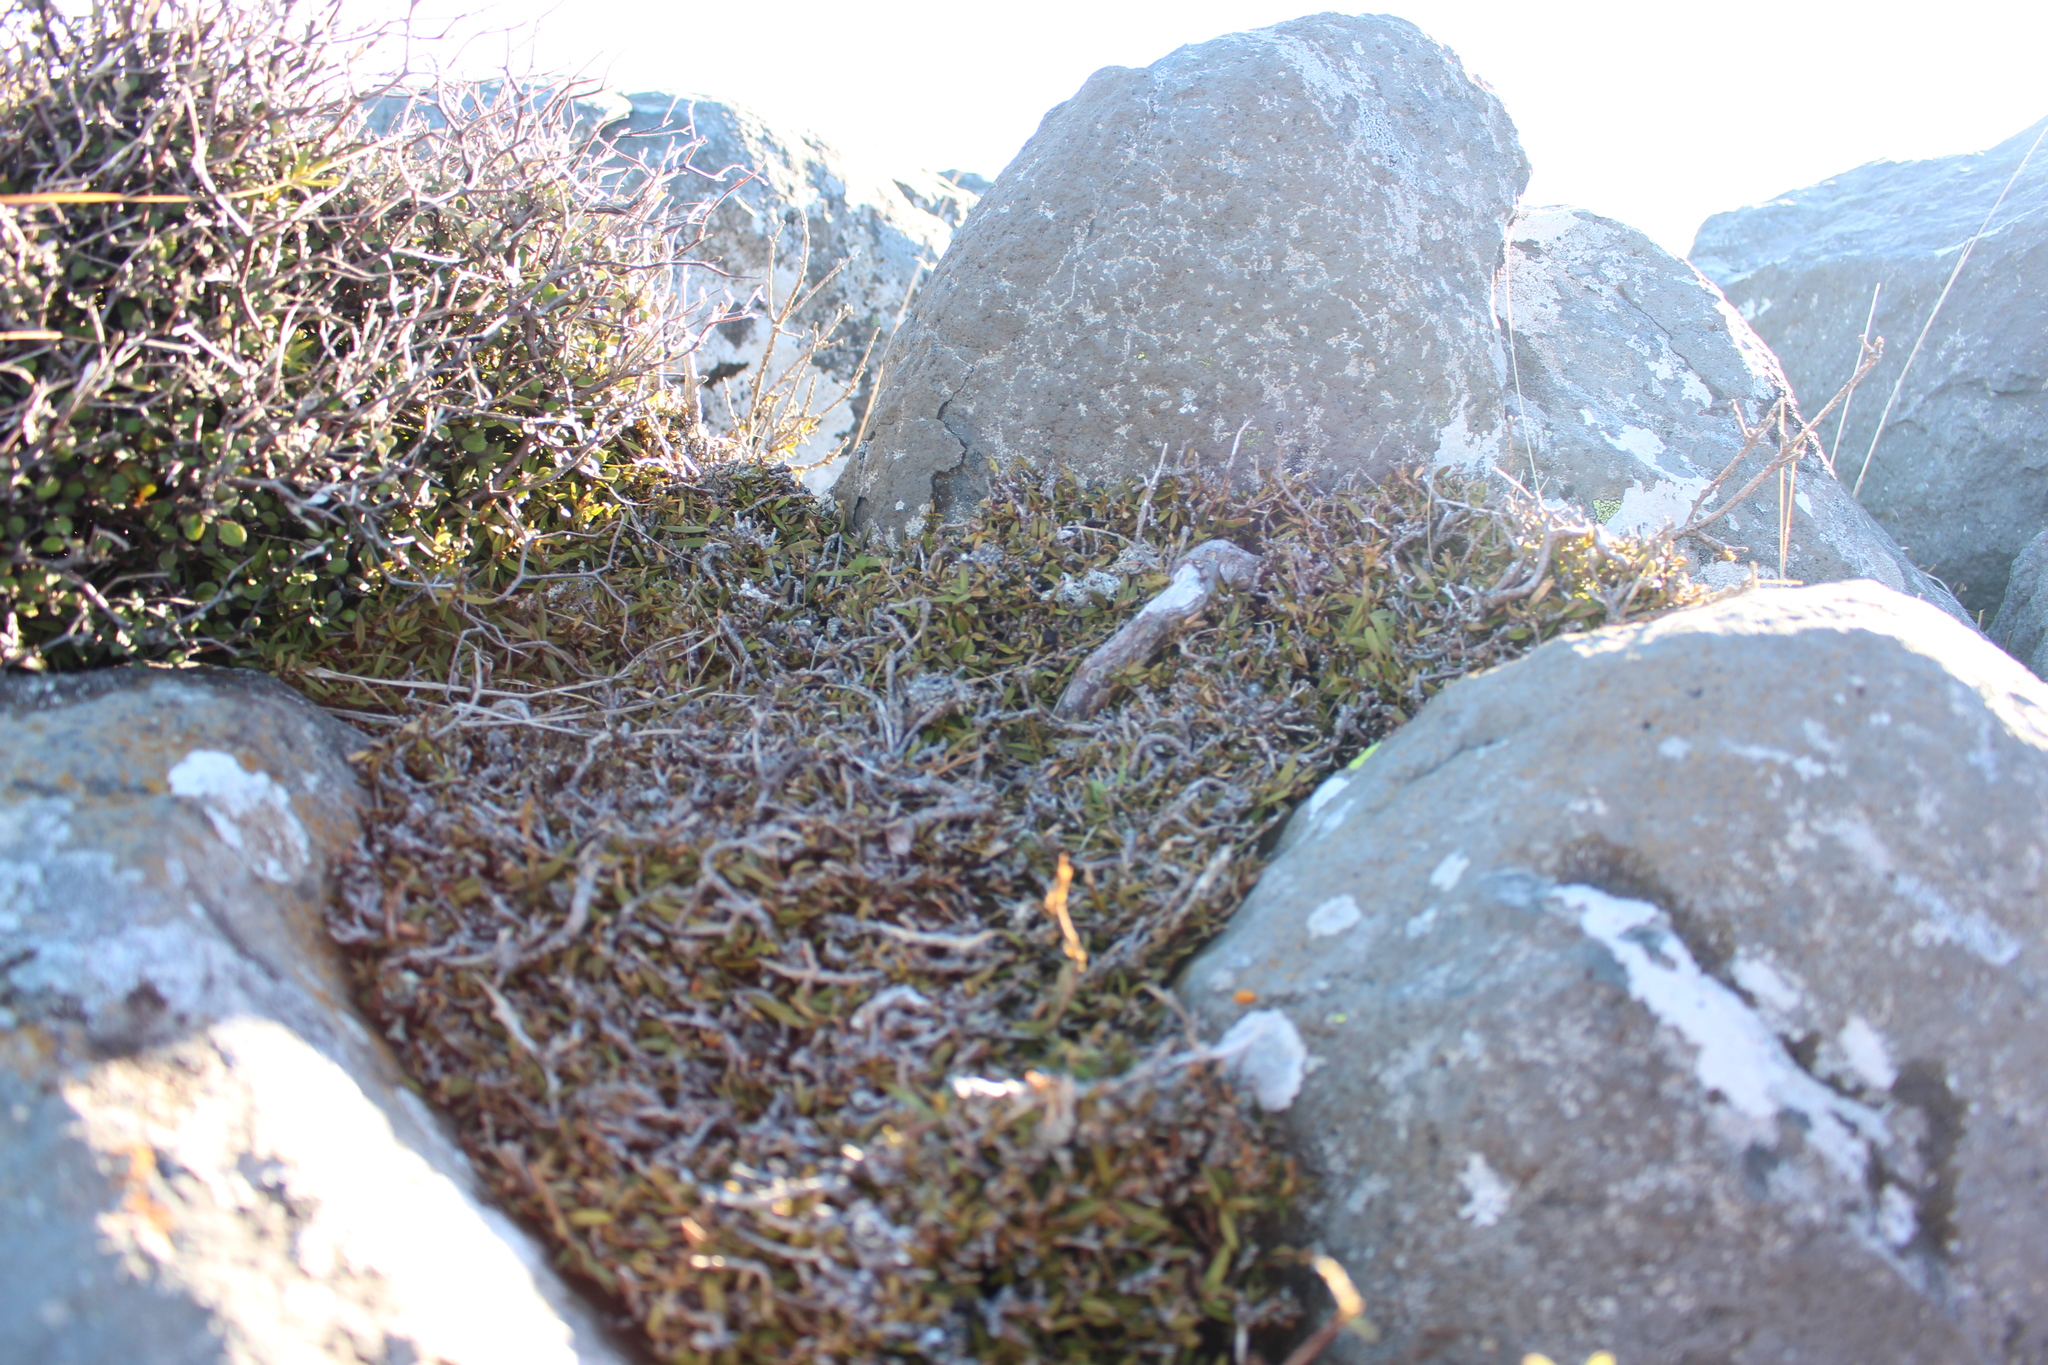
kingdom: Plantae
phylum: Tracheophyta
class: Magnoliopsida
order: Ericales
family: Ericaceae
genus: Leucopogon
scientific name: Leucopogon fasciculatus
